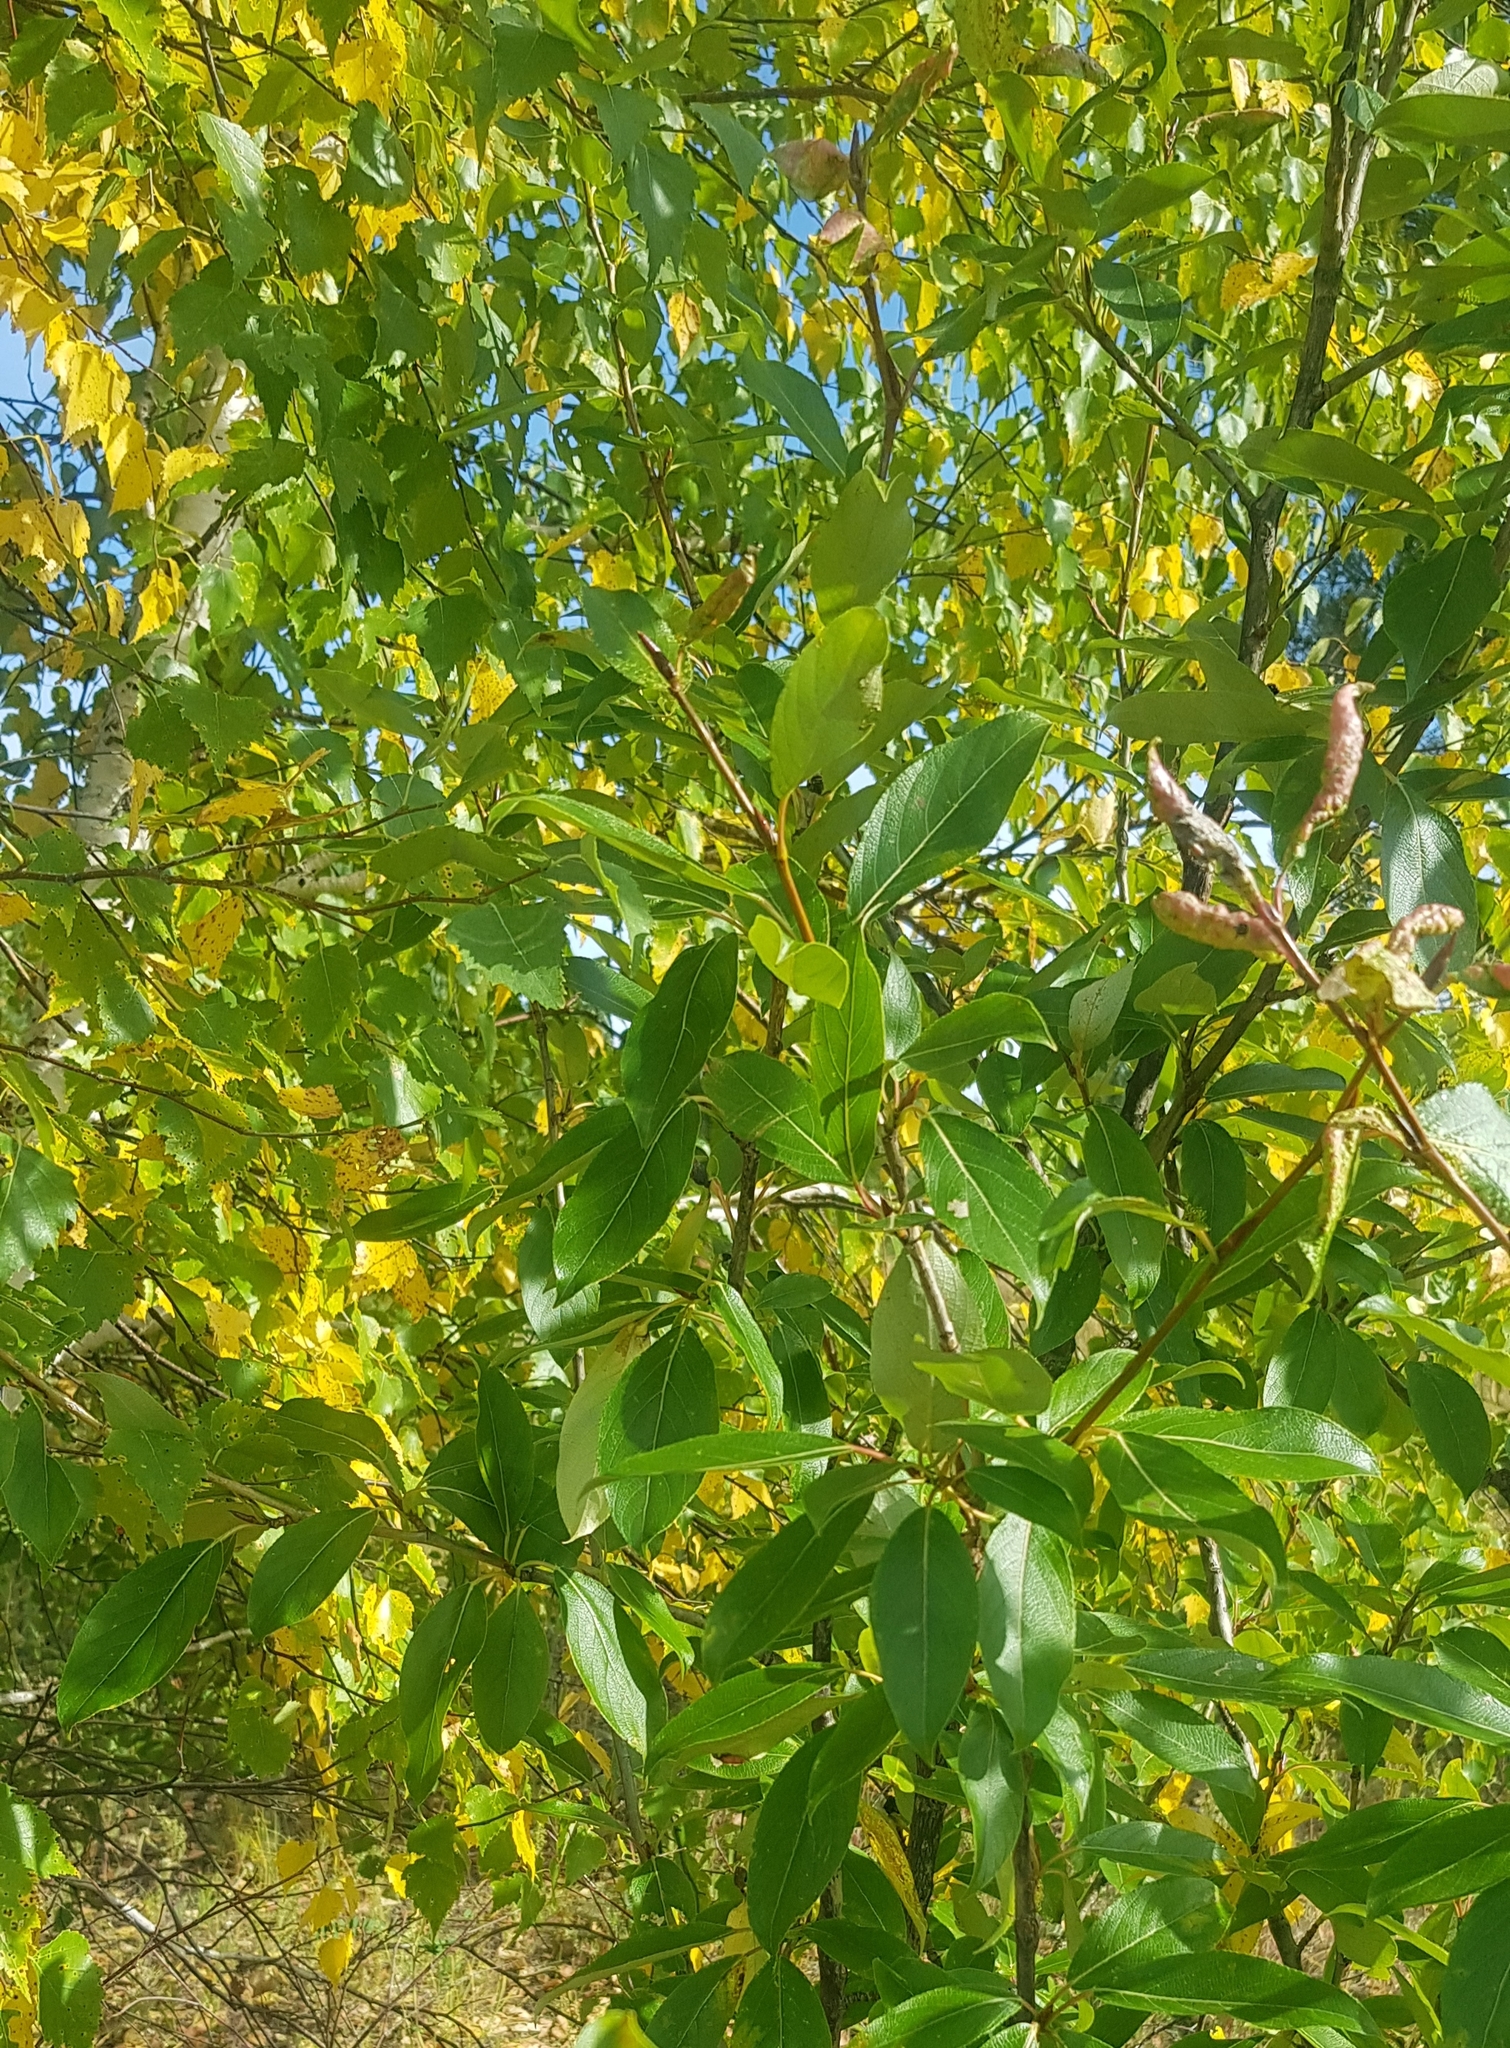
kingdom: Plantae
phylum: Tracheophyta
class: Magnoliopsida
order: Malpighiales
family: Salicaceae
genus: Populus
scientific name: Populus suaveolens
